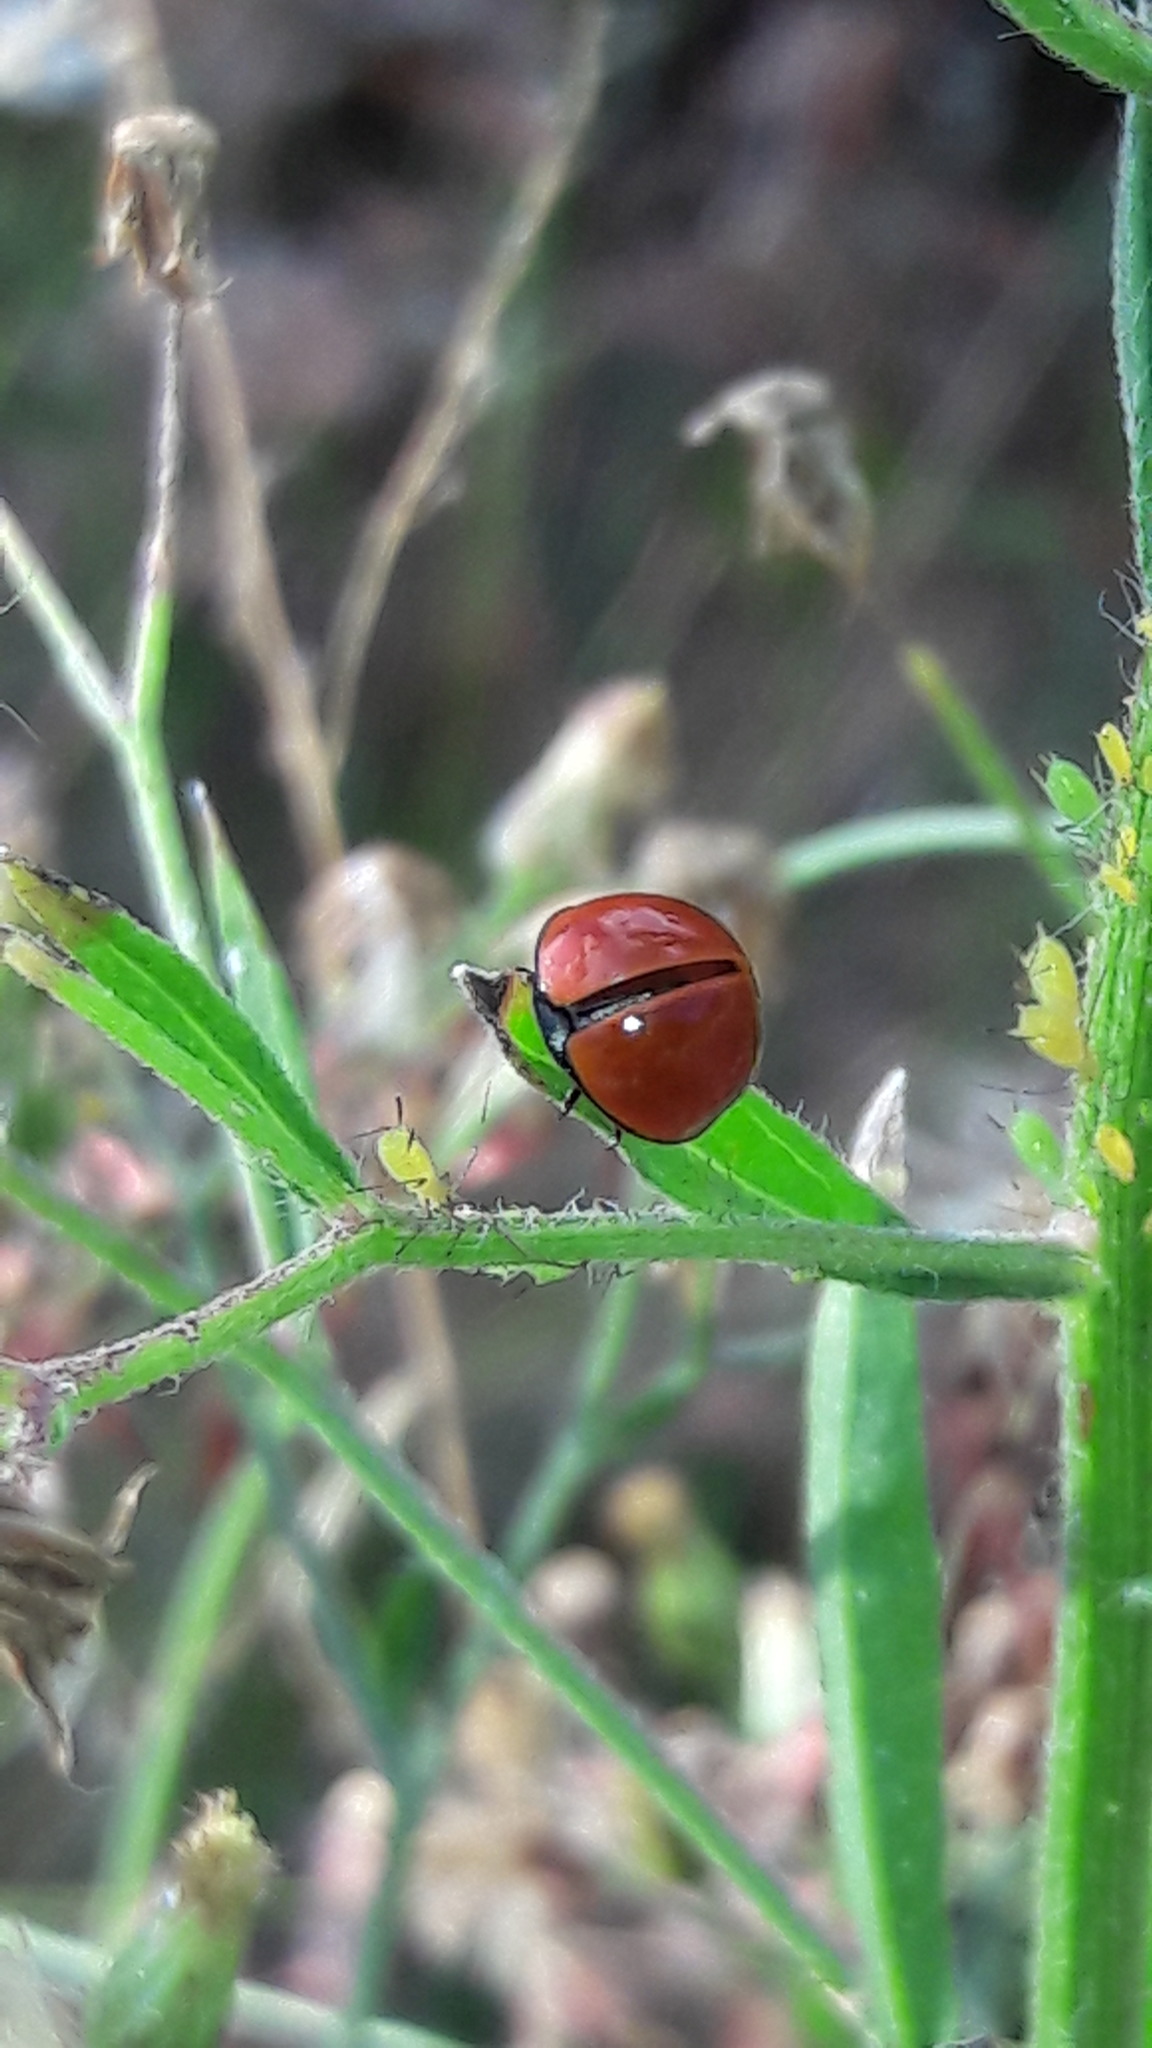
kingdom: Animalia
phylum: Arthropoda
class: Insecta
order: Coleoptera
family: Coccinellidae
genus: Cycloneda
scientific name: Cycloneda sanguinea
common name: Ladybird beetle
